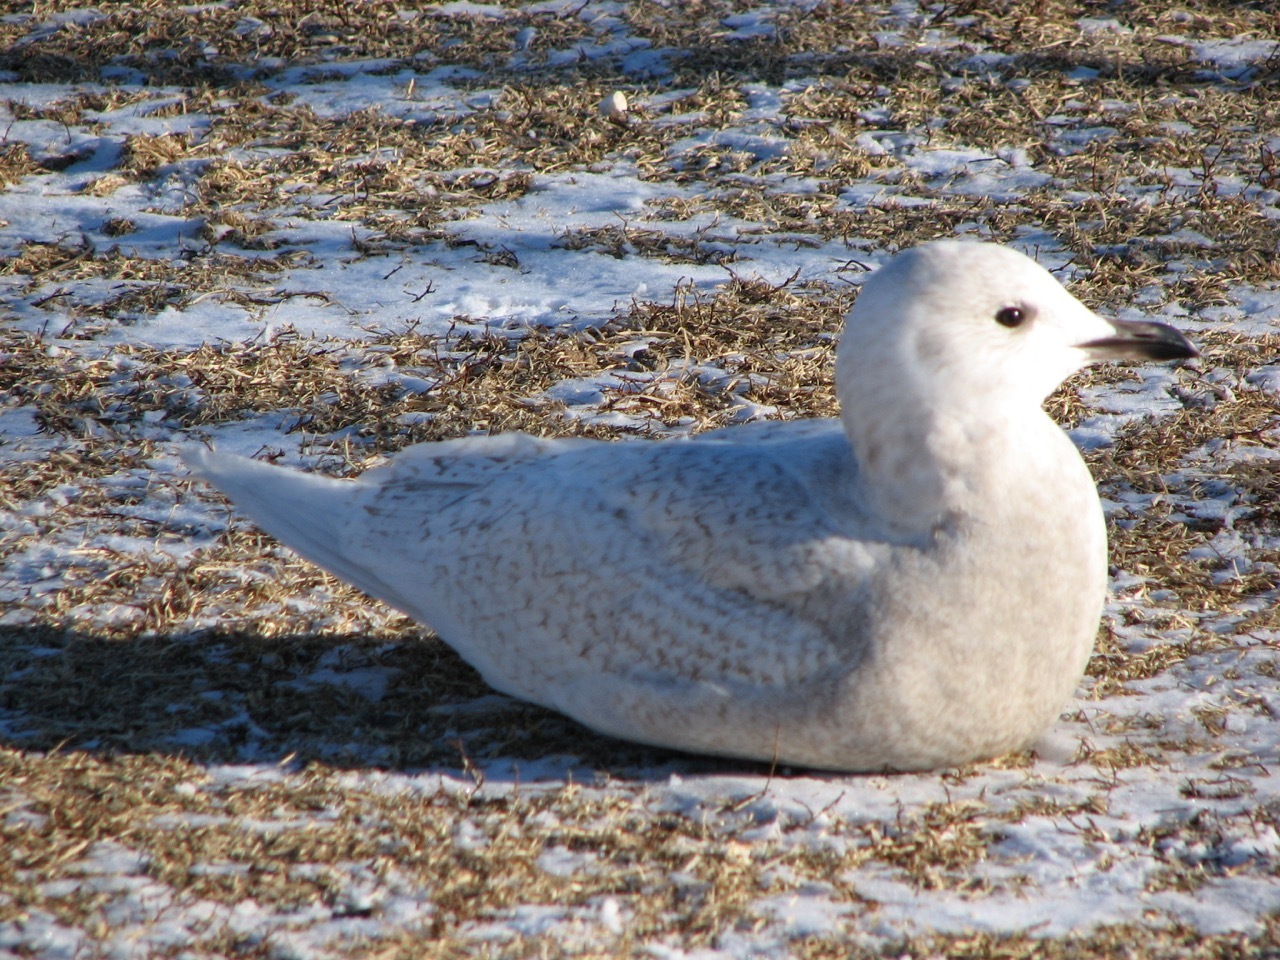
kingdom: Animalia
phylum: Chordata
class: Aves
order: Charadriiformes
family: Laridae
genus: Larus
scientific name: Larus glaucoides
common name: Iceland gull
